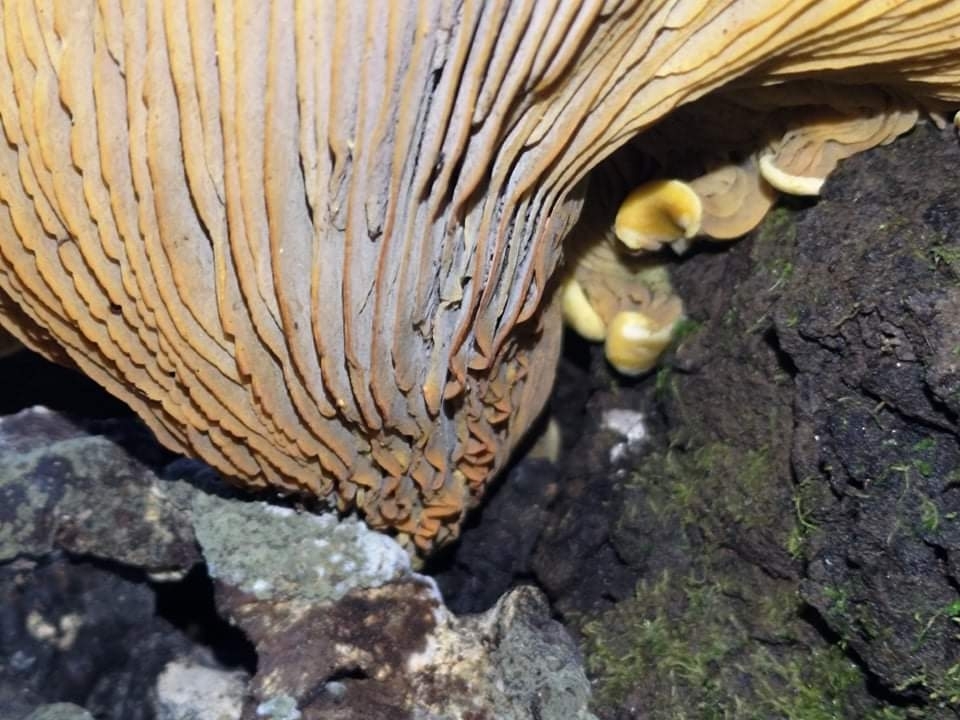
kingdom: Fungi
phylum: Basidiomycota
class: Agaricomycetes
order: Agaricales
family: Omphalotaceae
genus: Omphalotus
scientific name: Omphalotus olivascens
